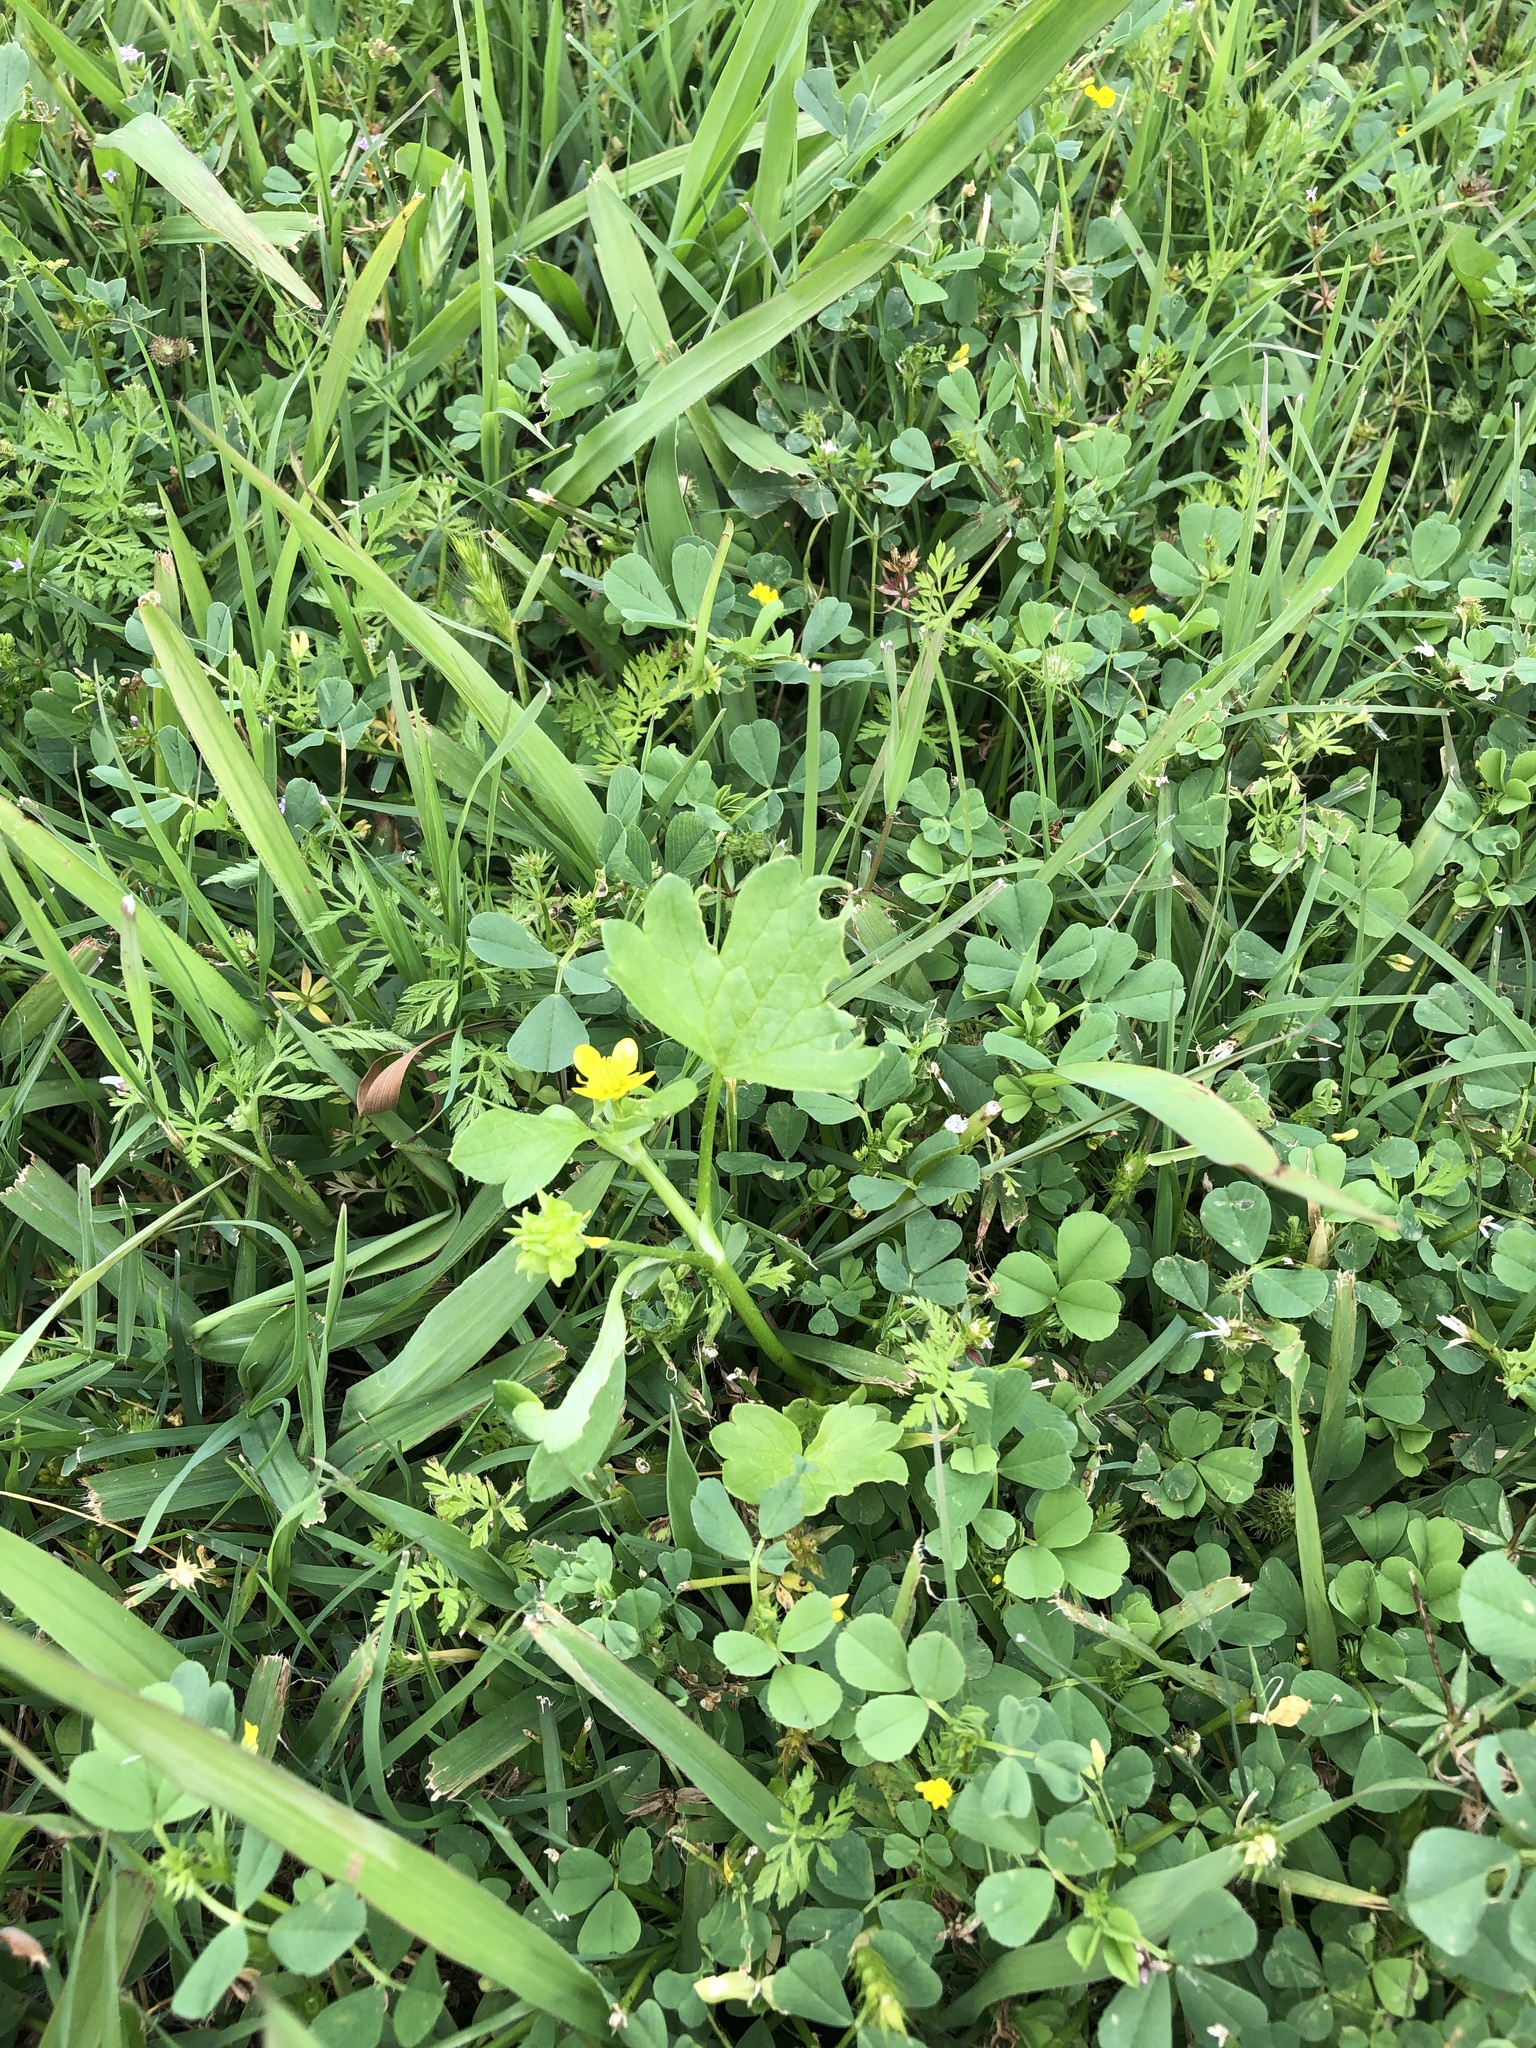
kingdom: Plantae
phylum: Tracheophyta
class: Magnoliopsida
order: Ranunculales
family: Ranunculaceae
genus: Ranunculus
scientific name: Ranunculus muricatus
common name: Rough-fruited buttercup
